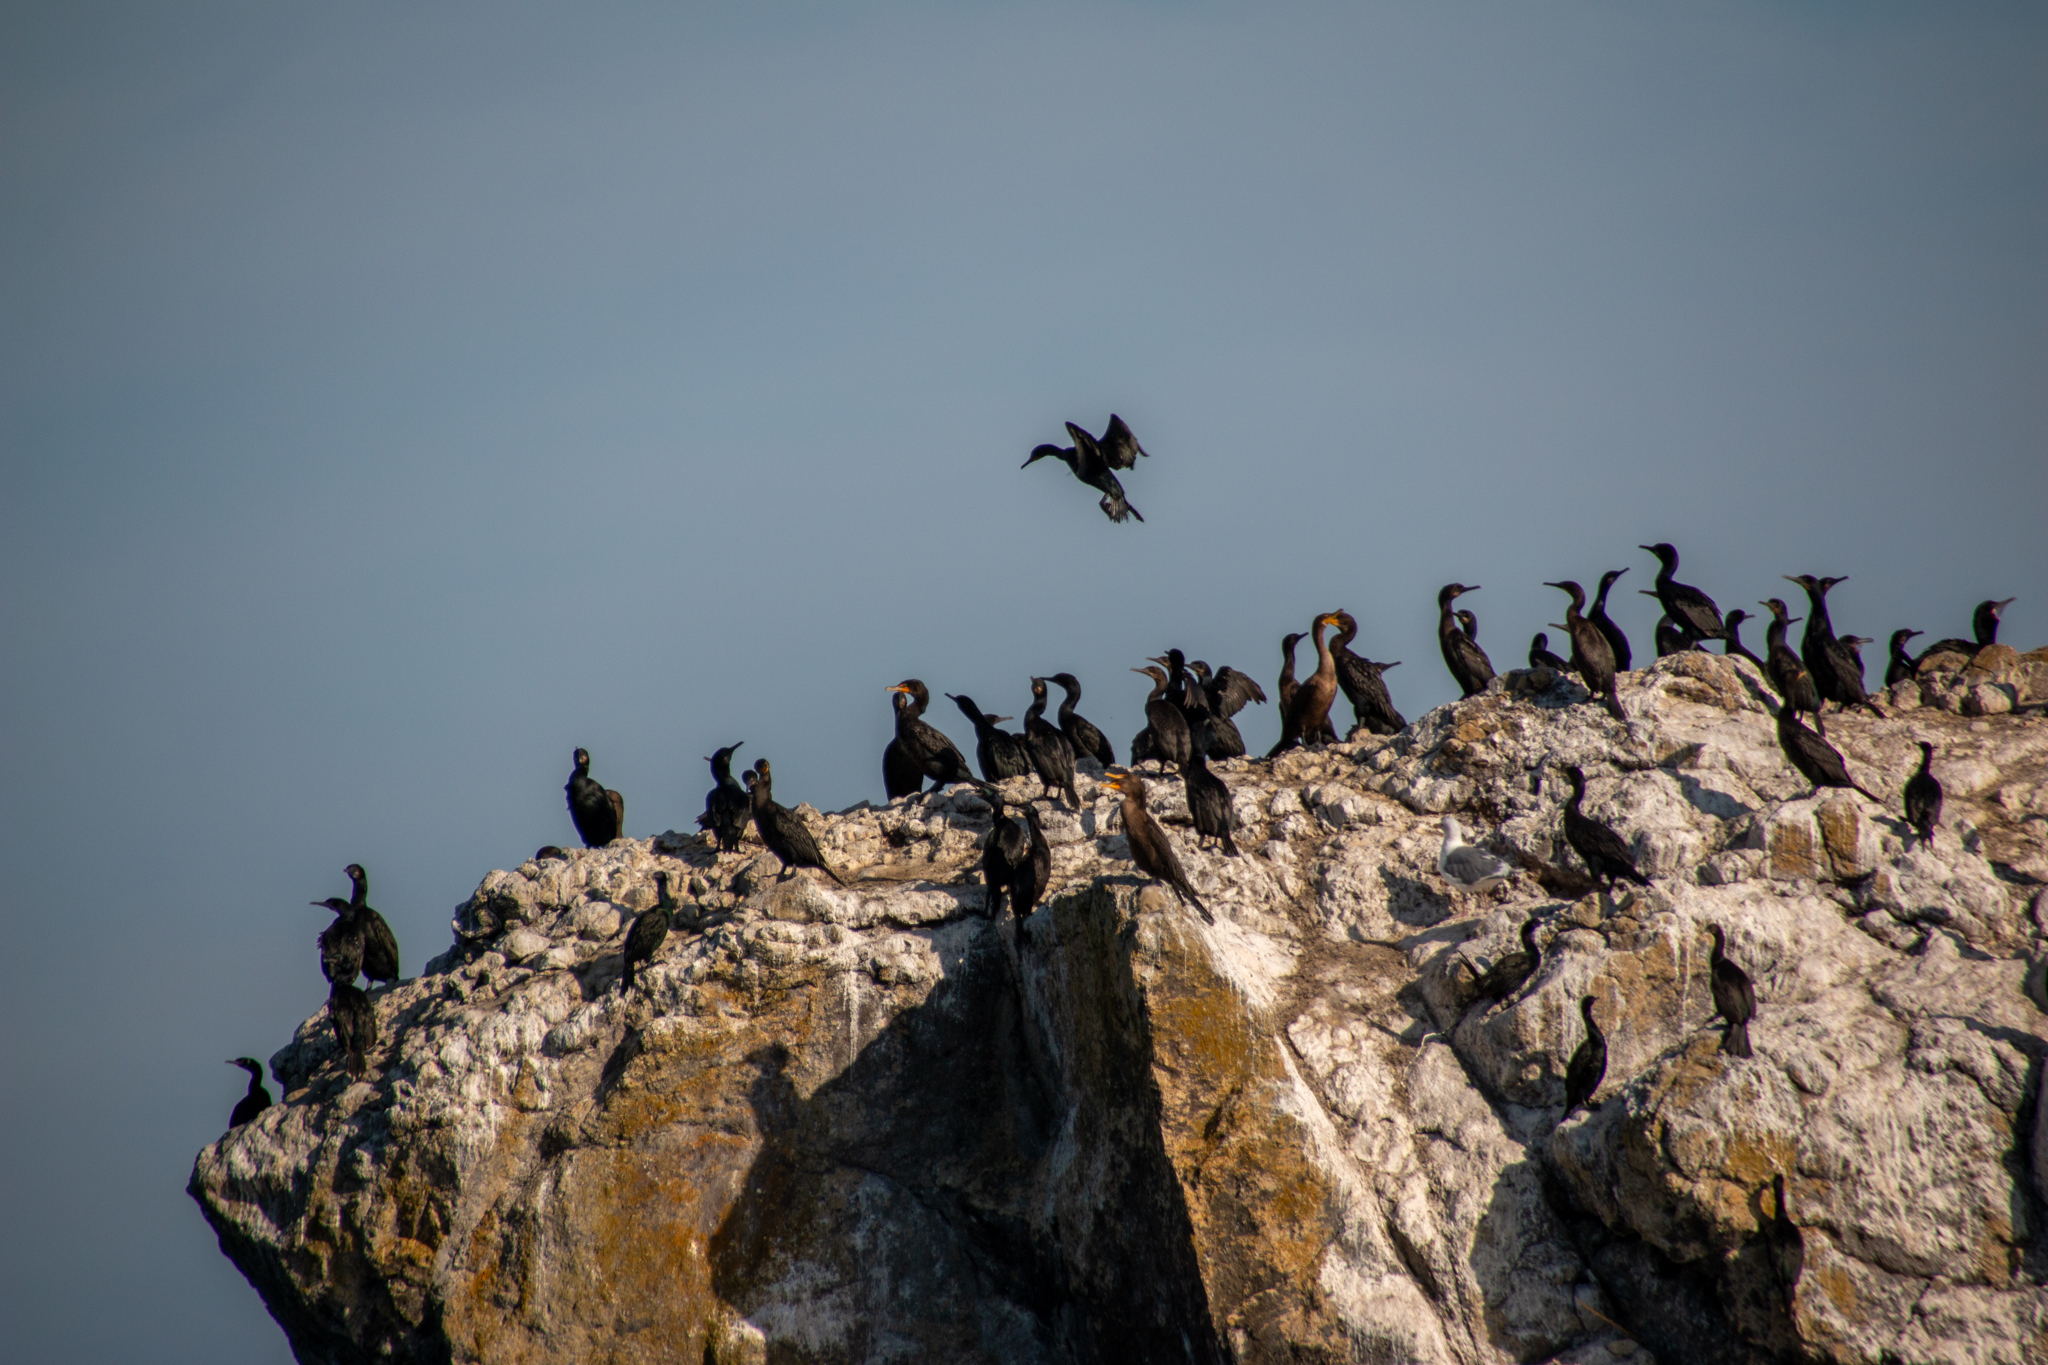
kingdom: Animalia
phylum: Chordata
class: Aves
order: Suliformes
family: Phalacrocoracidae
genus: Phalacrocorax
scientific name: Phalacrocorax auritus
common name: Double-crested cormorant
